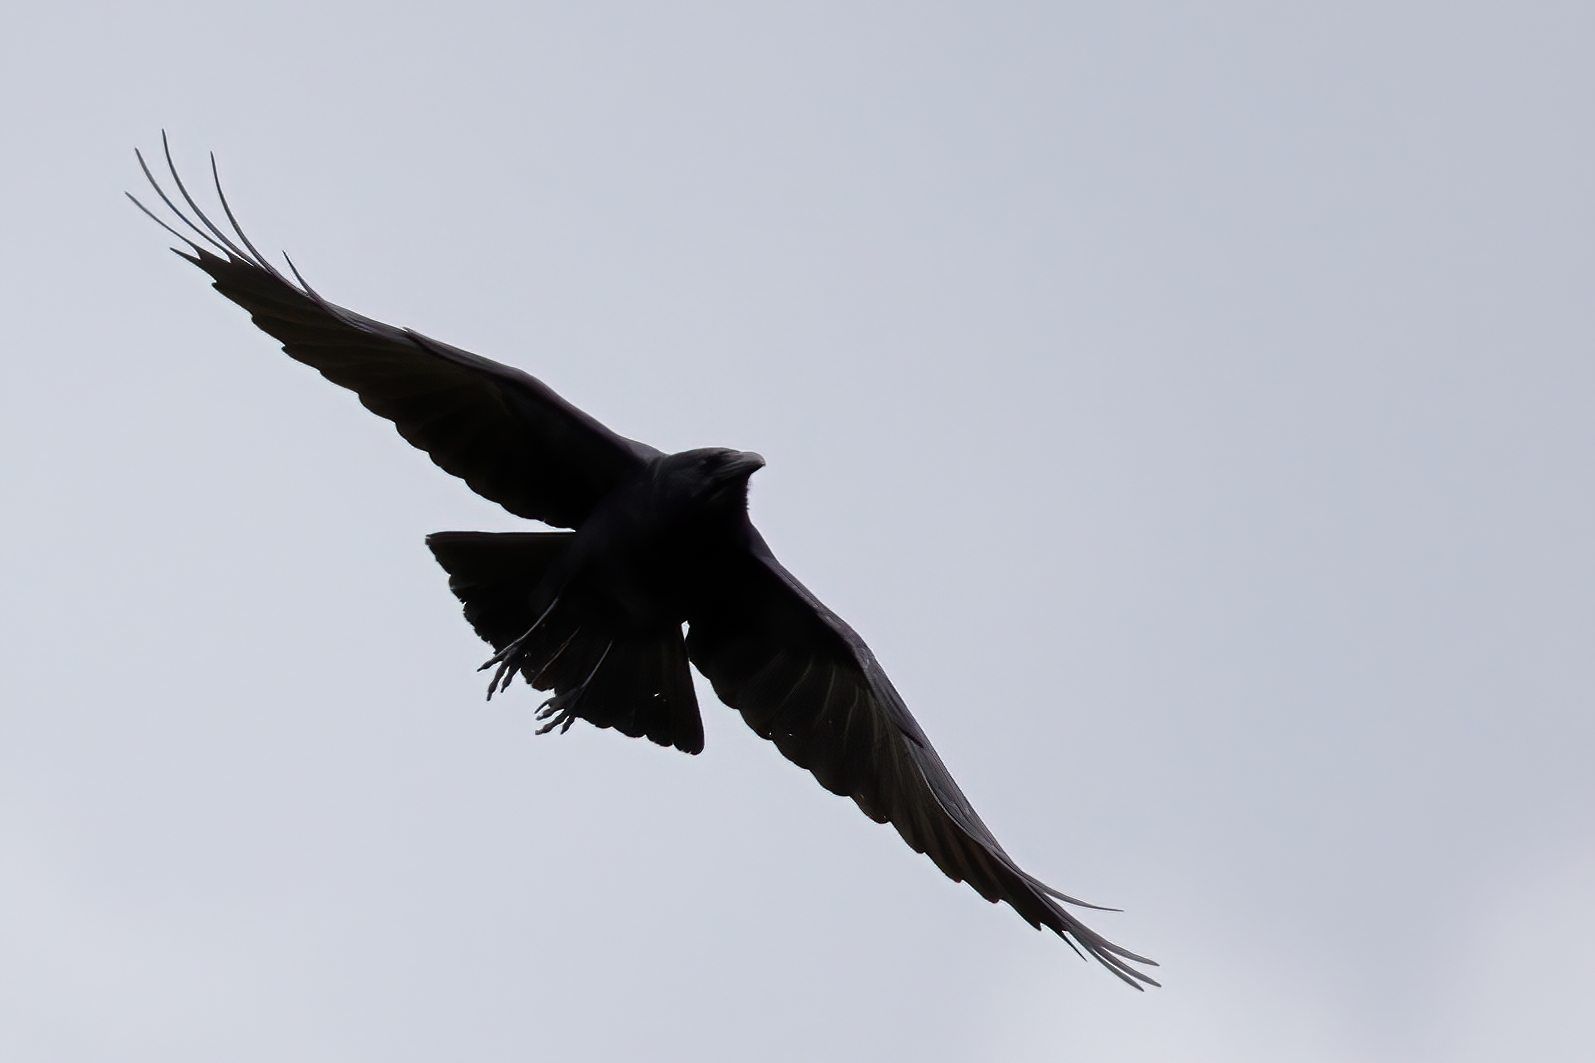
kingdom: Animalia
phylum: Chordata
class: Aves
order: Passeriformes
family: Corvidae
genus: Corvus
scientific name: Corvus brachyrhynchos
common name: American crow
